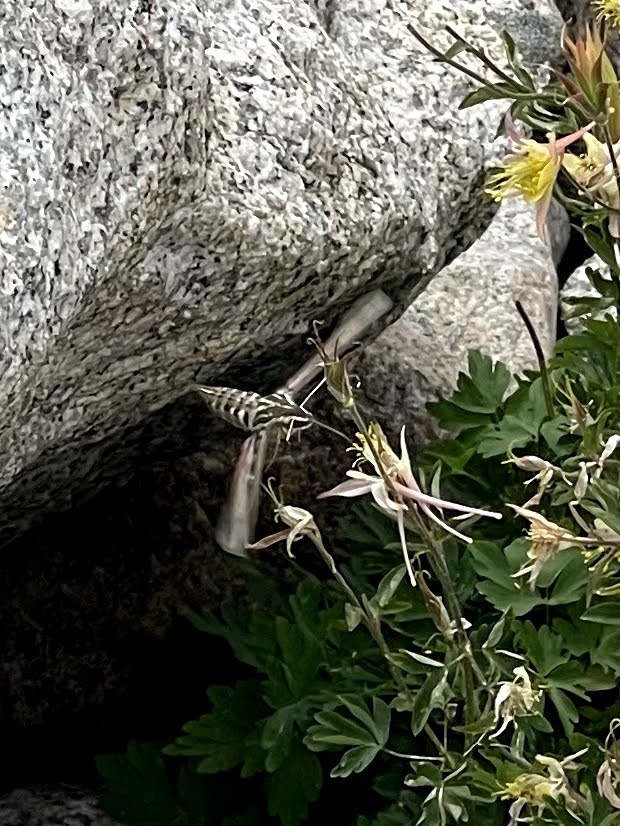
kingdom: Animalia
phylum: Arthropoda
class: Insecta
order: Lepidoptera
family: Sphingidae
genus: Hyles
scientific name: Hyles lineata
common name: White-lined sphinx
